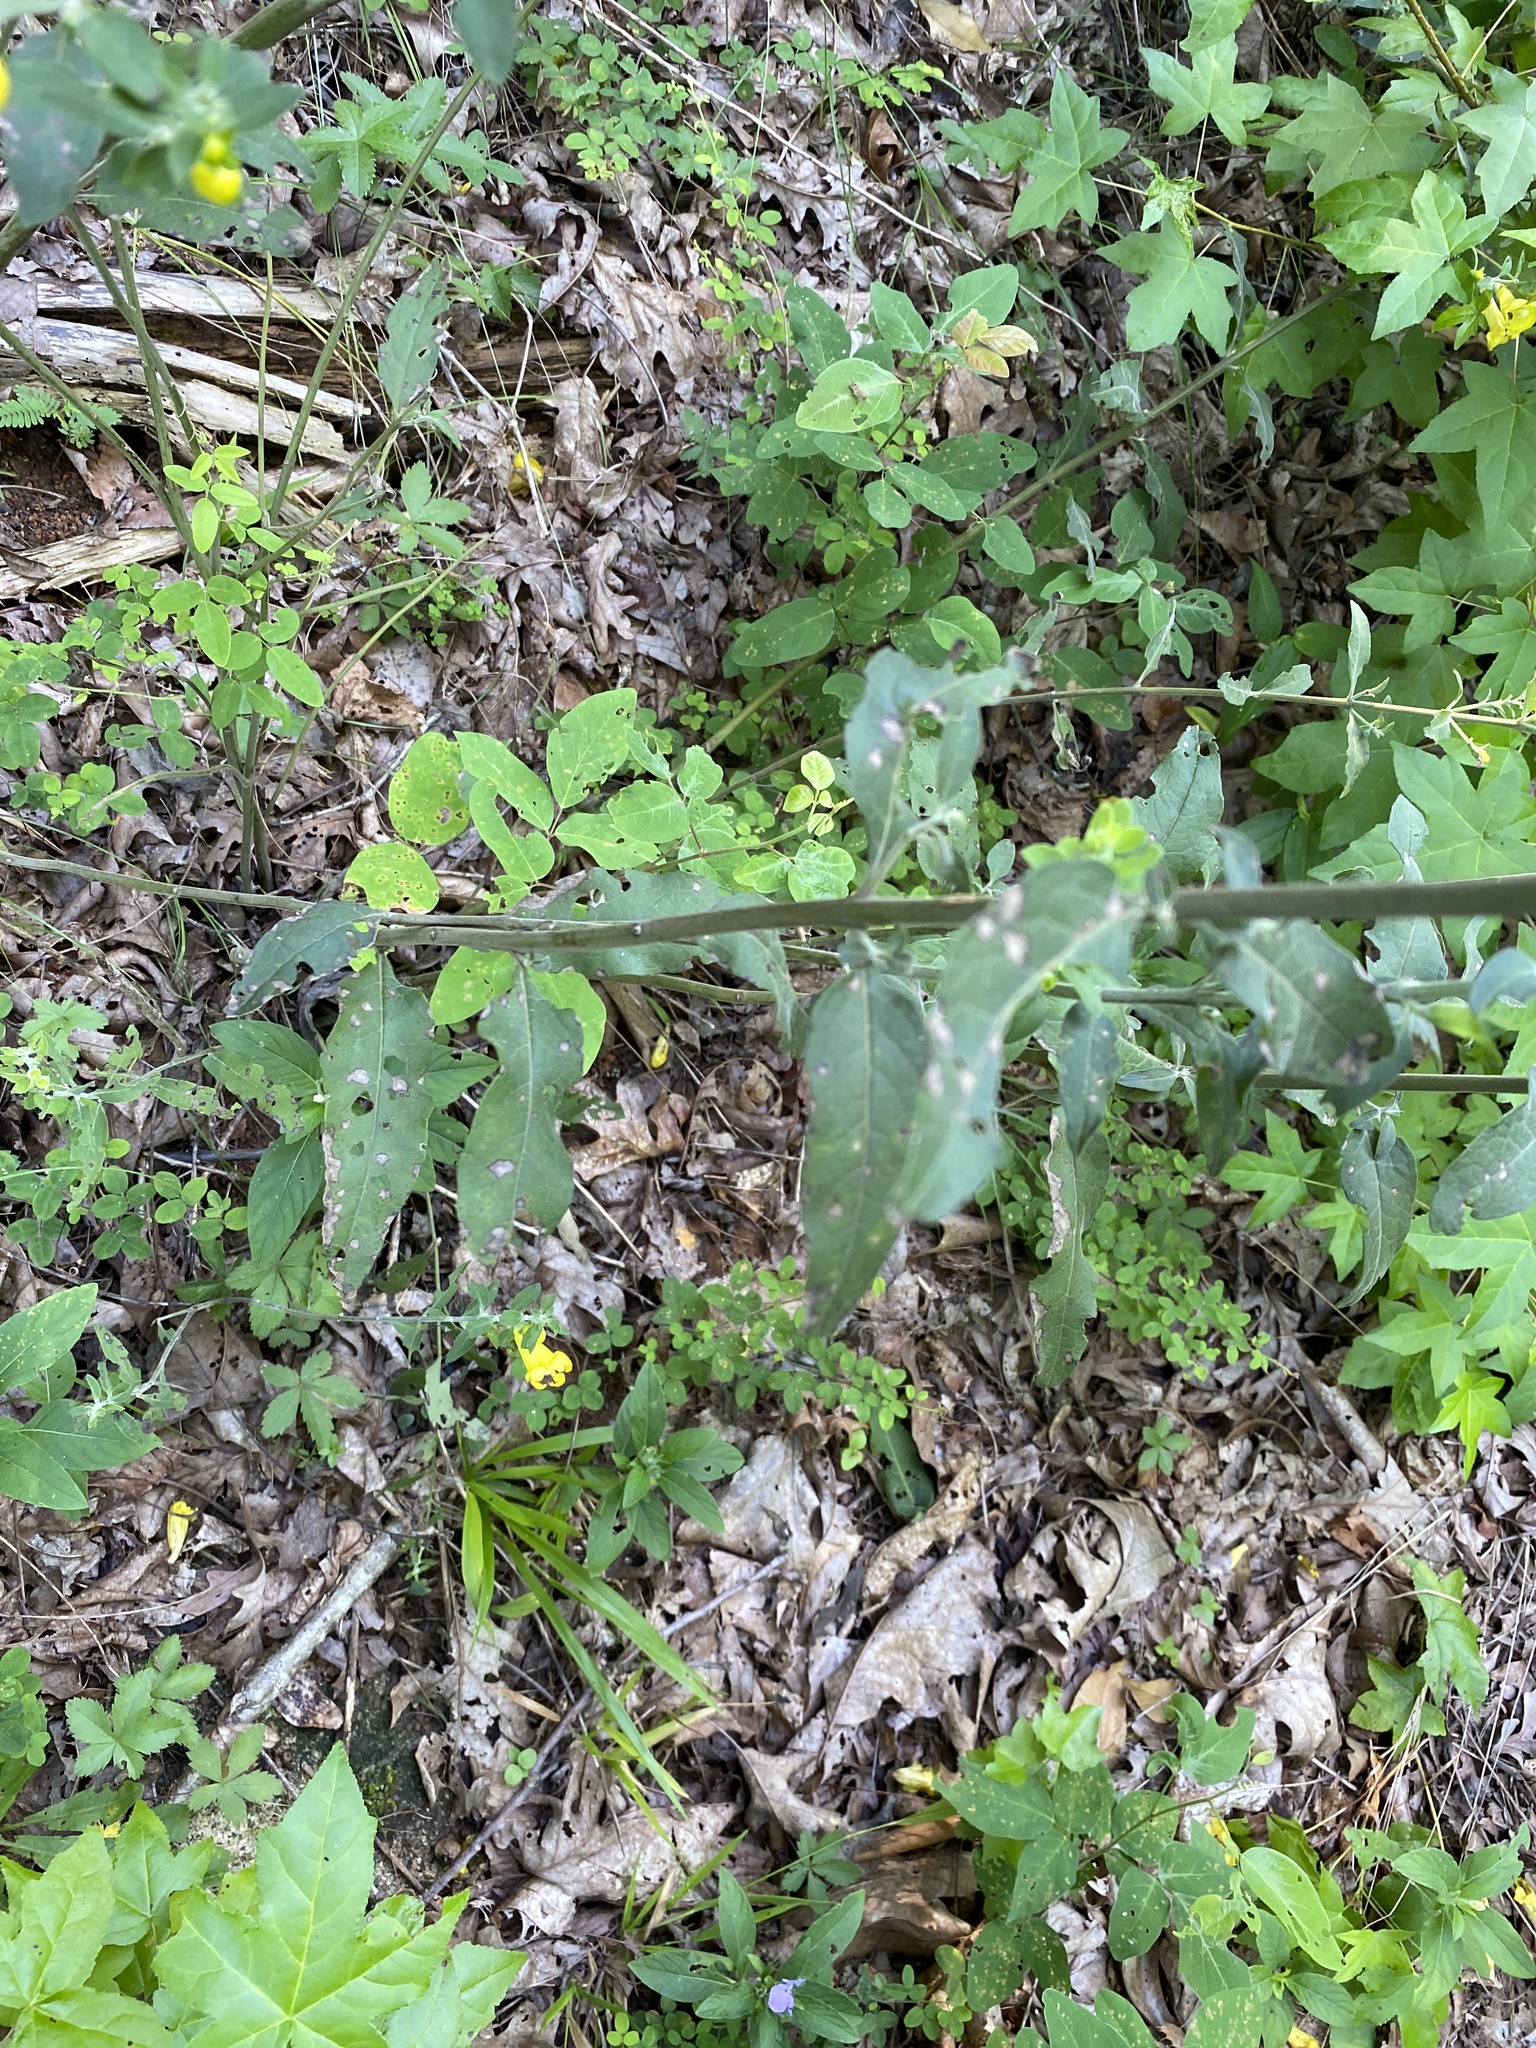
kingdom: Plantae
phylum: Tracheophyta
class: Magnoliopsida
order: Lamiales
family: Orobanchaceae
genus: Aureolaria
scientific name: Aureolaria virginica
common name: Downy false foxglove
